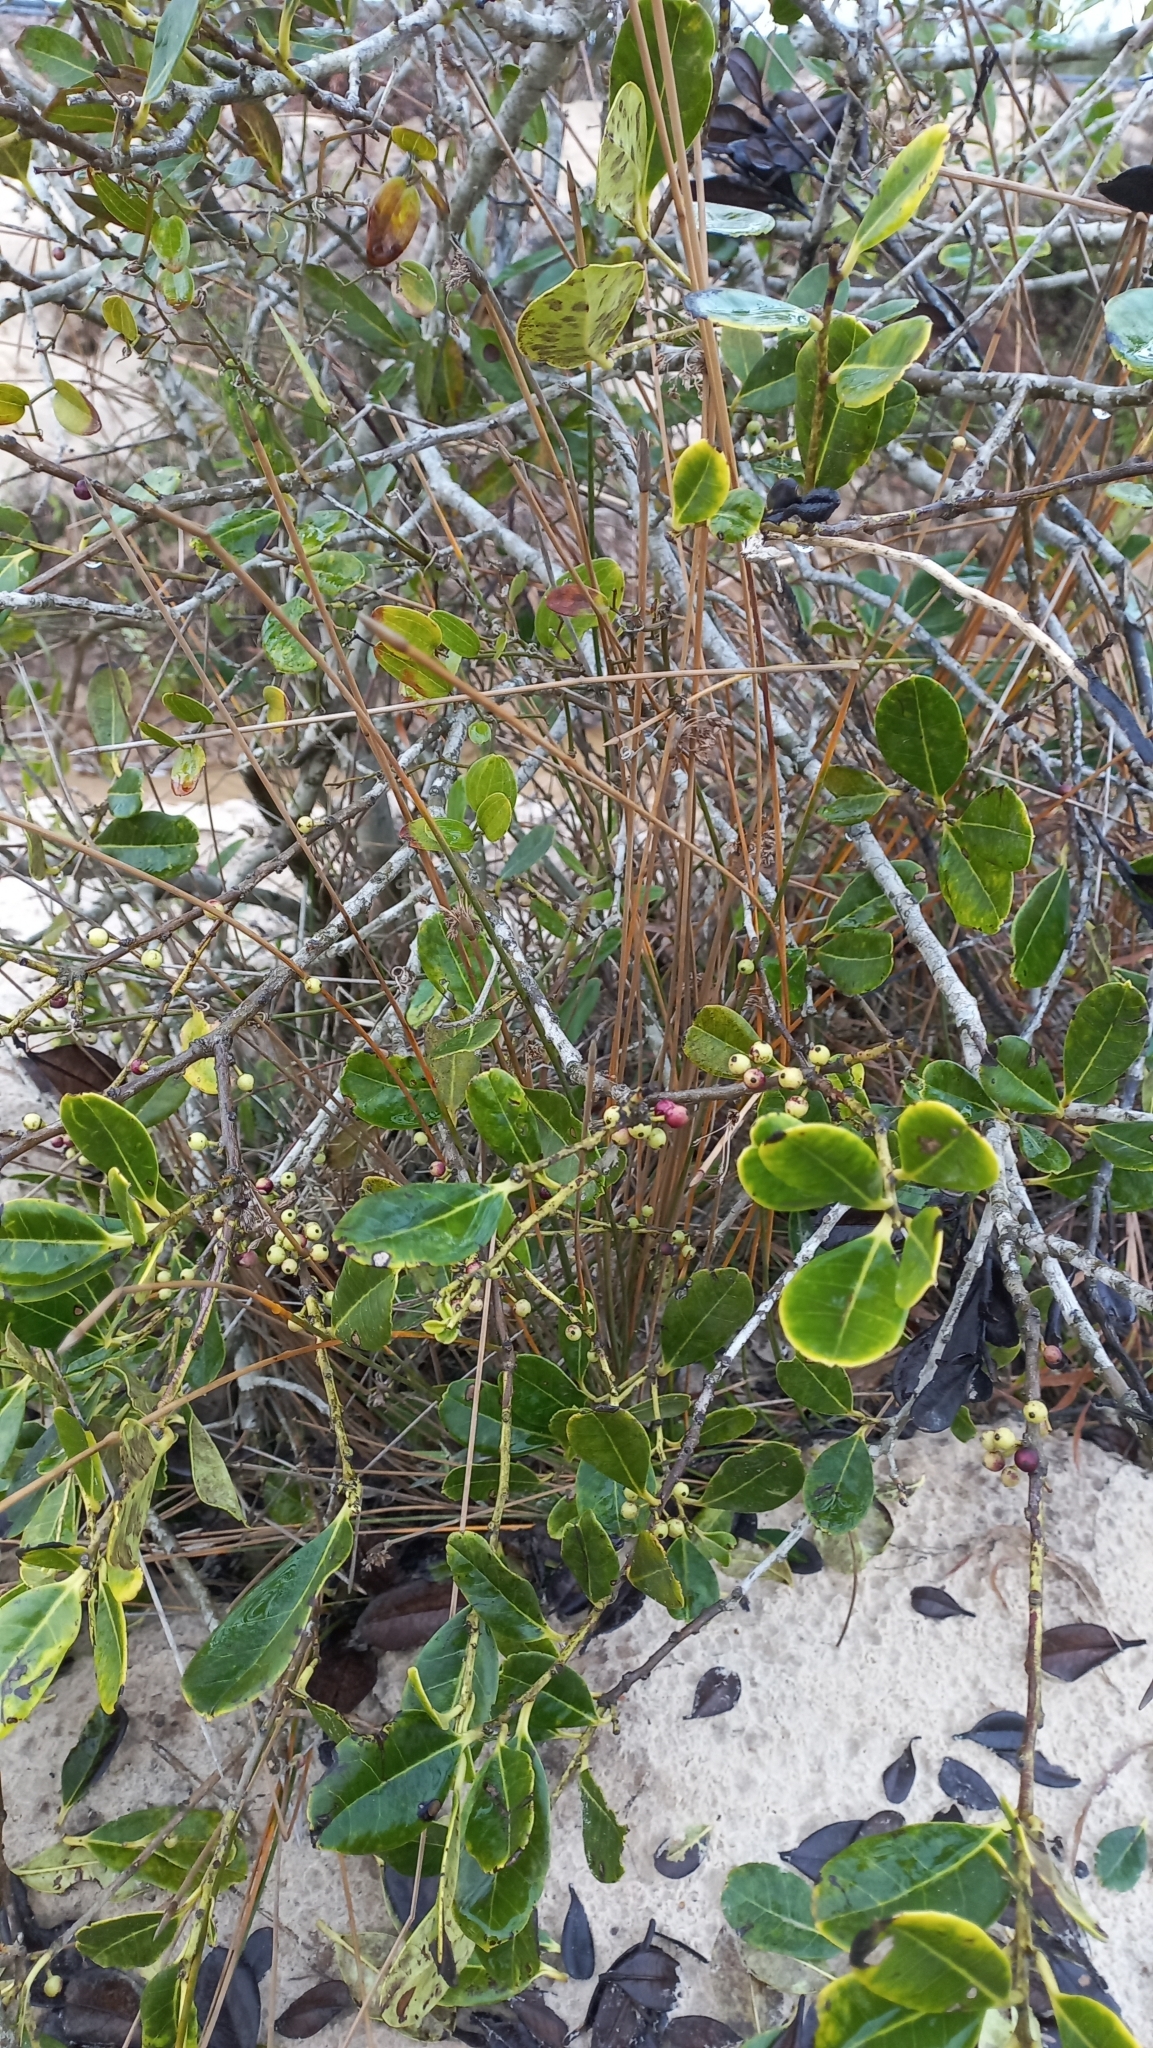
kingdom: Plantae
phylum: Tracheophyta
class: Magnoliopsida
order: Aquifoliales
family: Aquifoliaceae
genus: Ilex
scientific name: Ilex theezans
